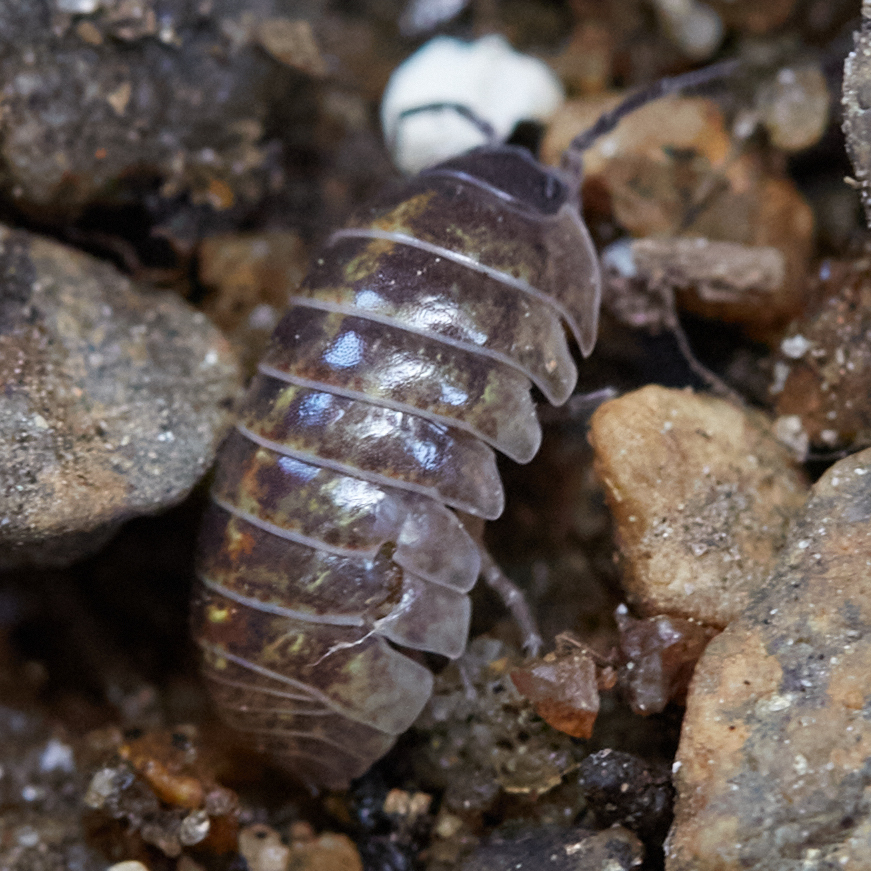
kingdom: Animalia
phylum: Arthropoda
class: Malacostraca
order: Isopoda
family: Armadillidiidae
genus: Armadillidium
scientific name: Armadillidium vulgare
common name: Common pill woodlouse
